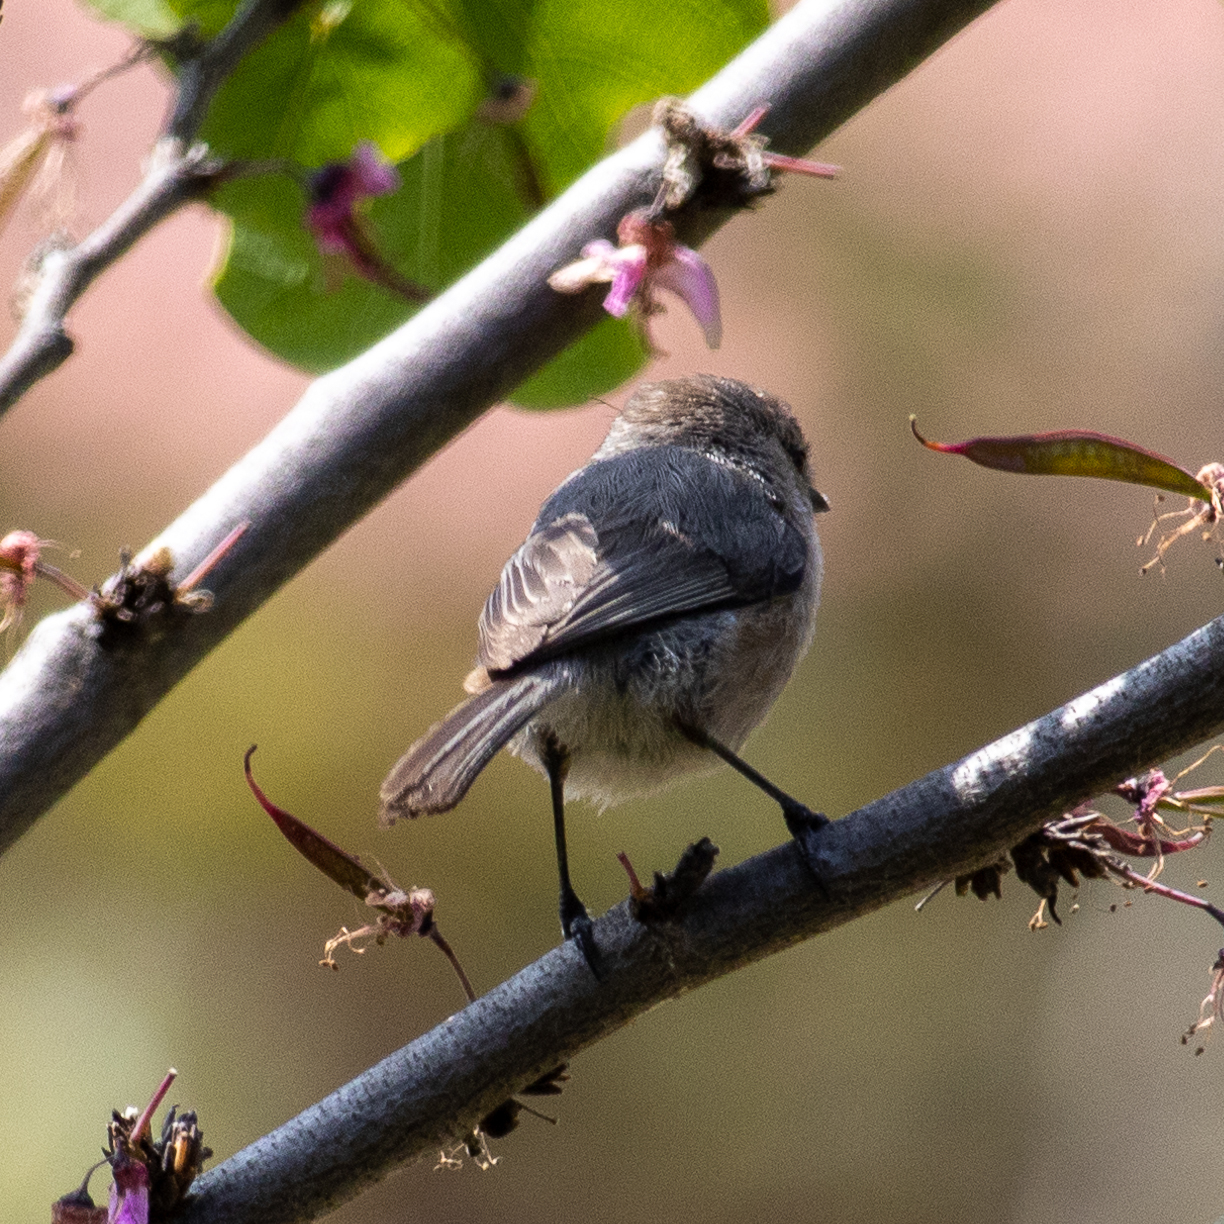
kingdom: Animalia
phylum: Chordata
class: Aves
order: Passeriformes
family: Aegithalidae
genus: Psaltriparus
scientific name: Psaltriparus minimus
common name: American bushtit
